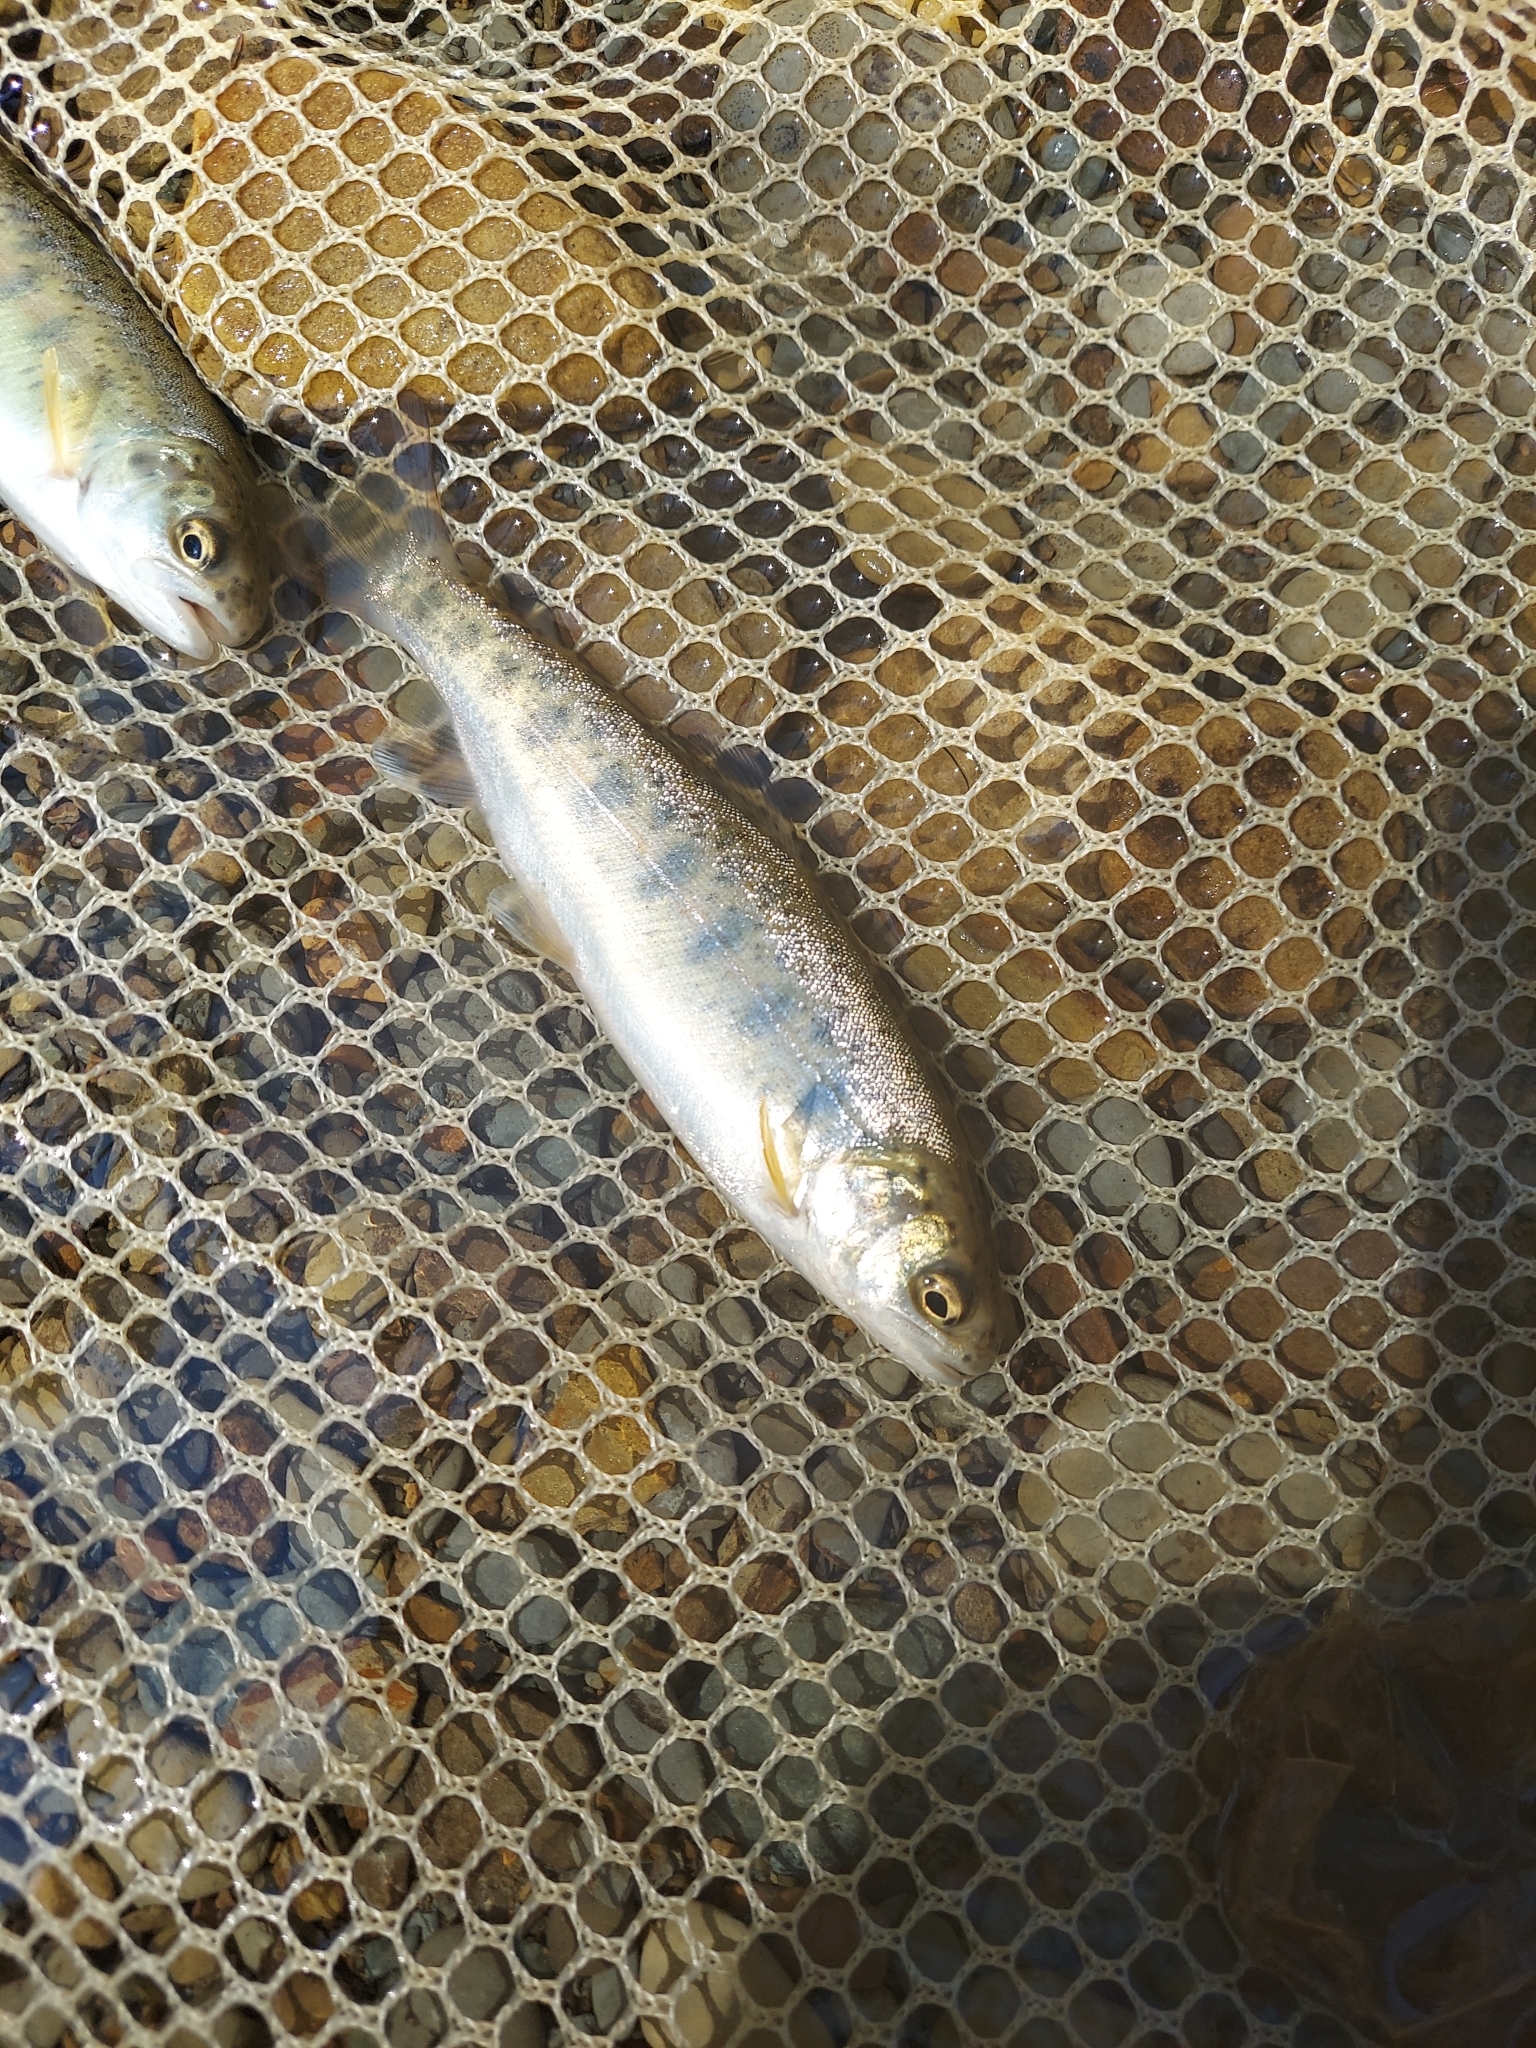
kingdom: Animalia
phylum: Chordata
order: Salmoniformes
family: Salmonidae
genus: Oncorhynchus
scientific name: Oncorhynchus mykiss
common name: Rainbow trout
